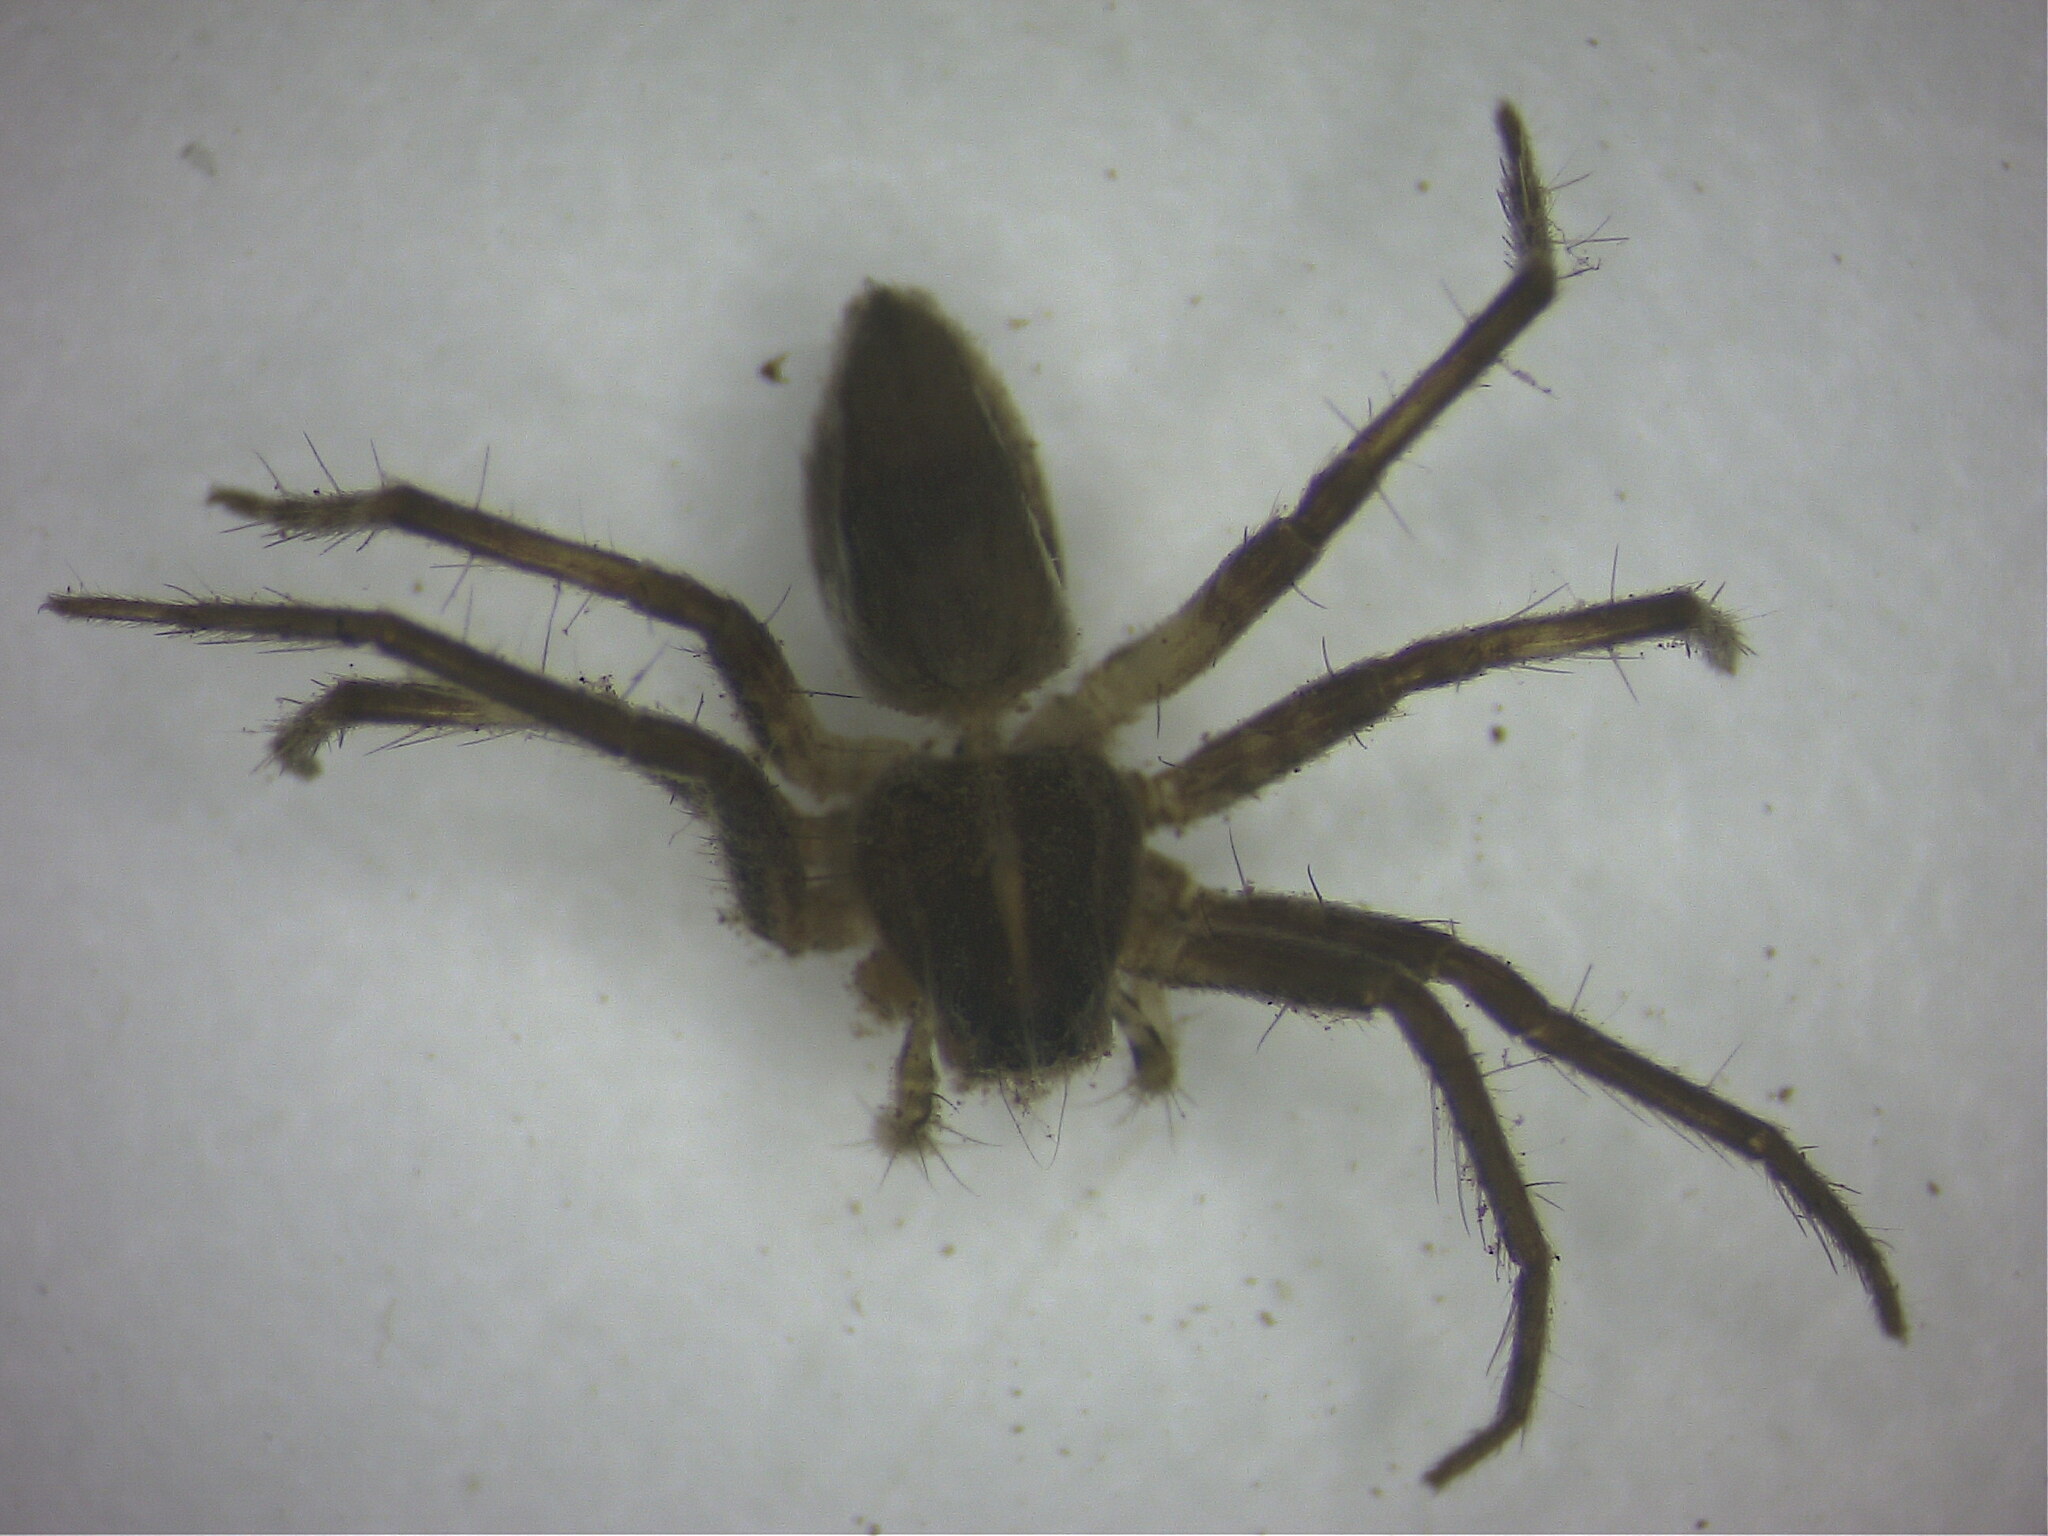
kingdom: Animalia
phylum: Arthropoda
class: Arachnida
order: Araneae
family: Pisauridae
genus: Pisaura
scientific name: Pisaura
